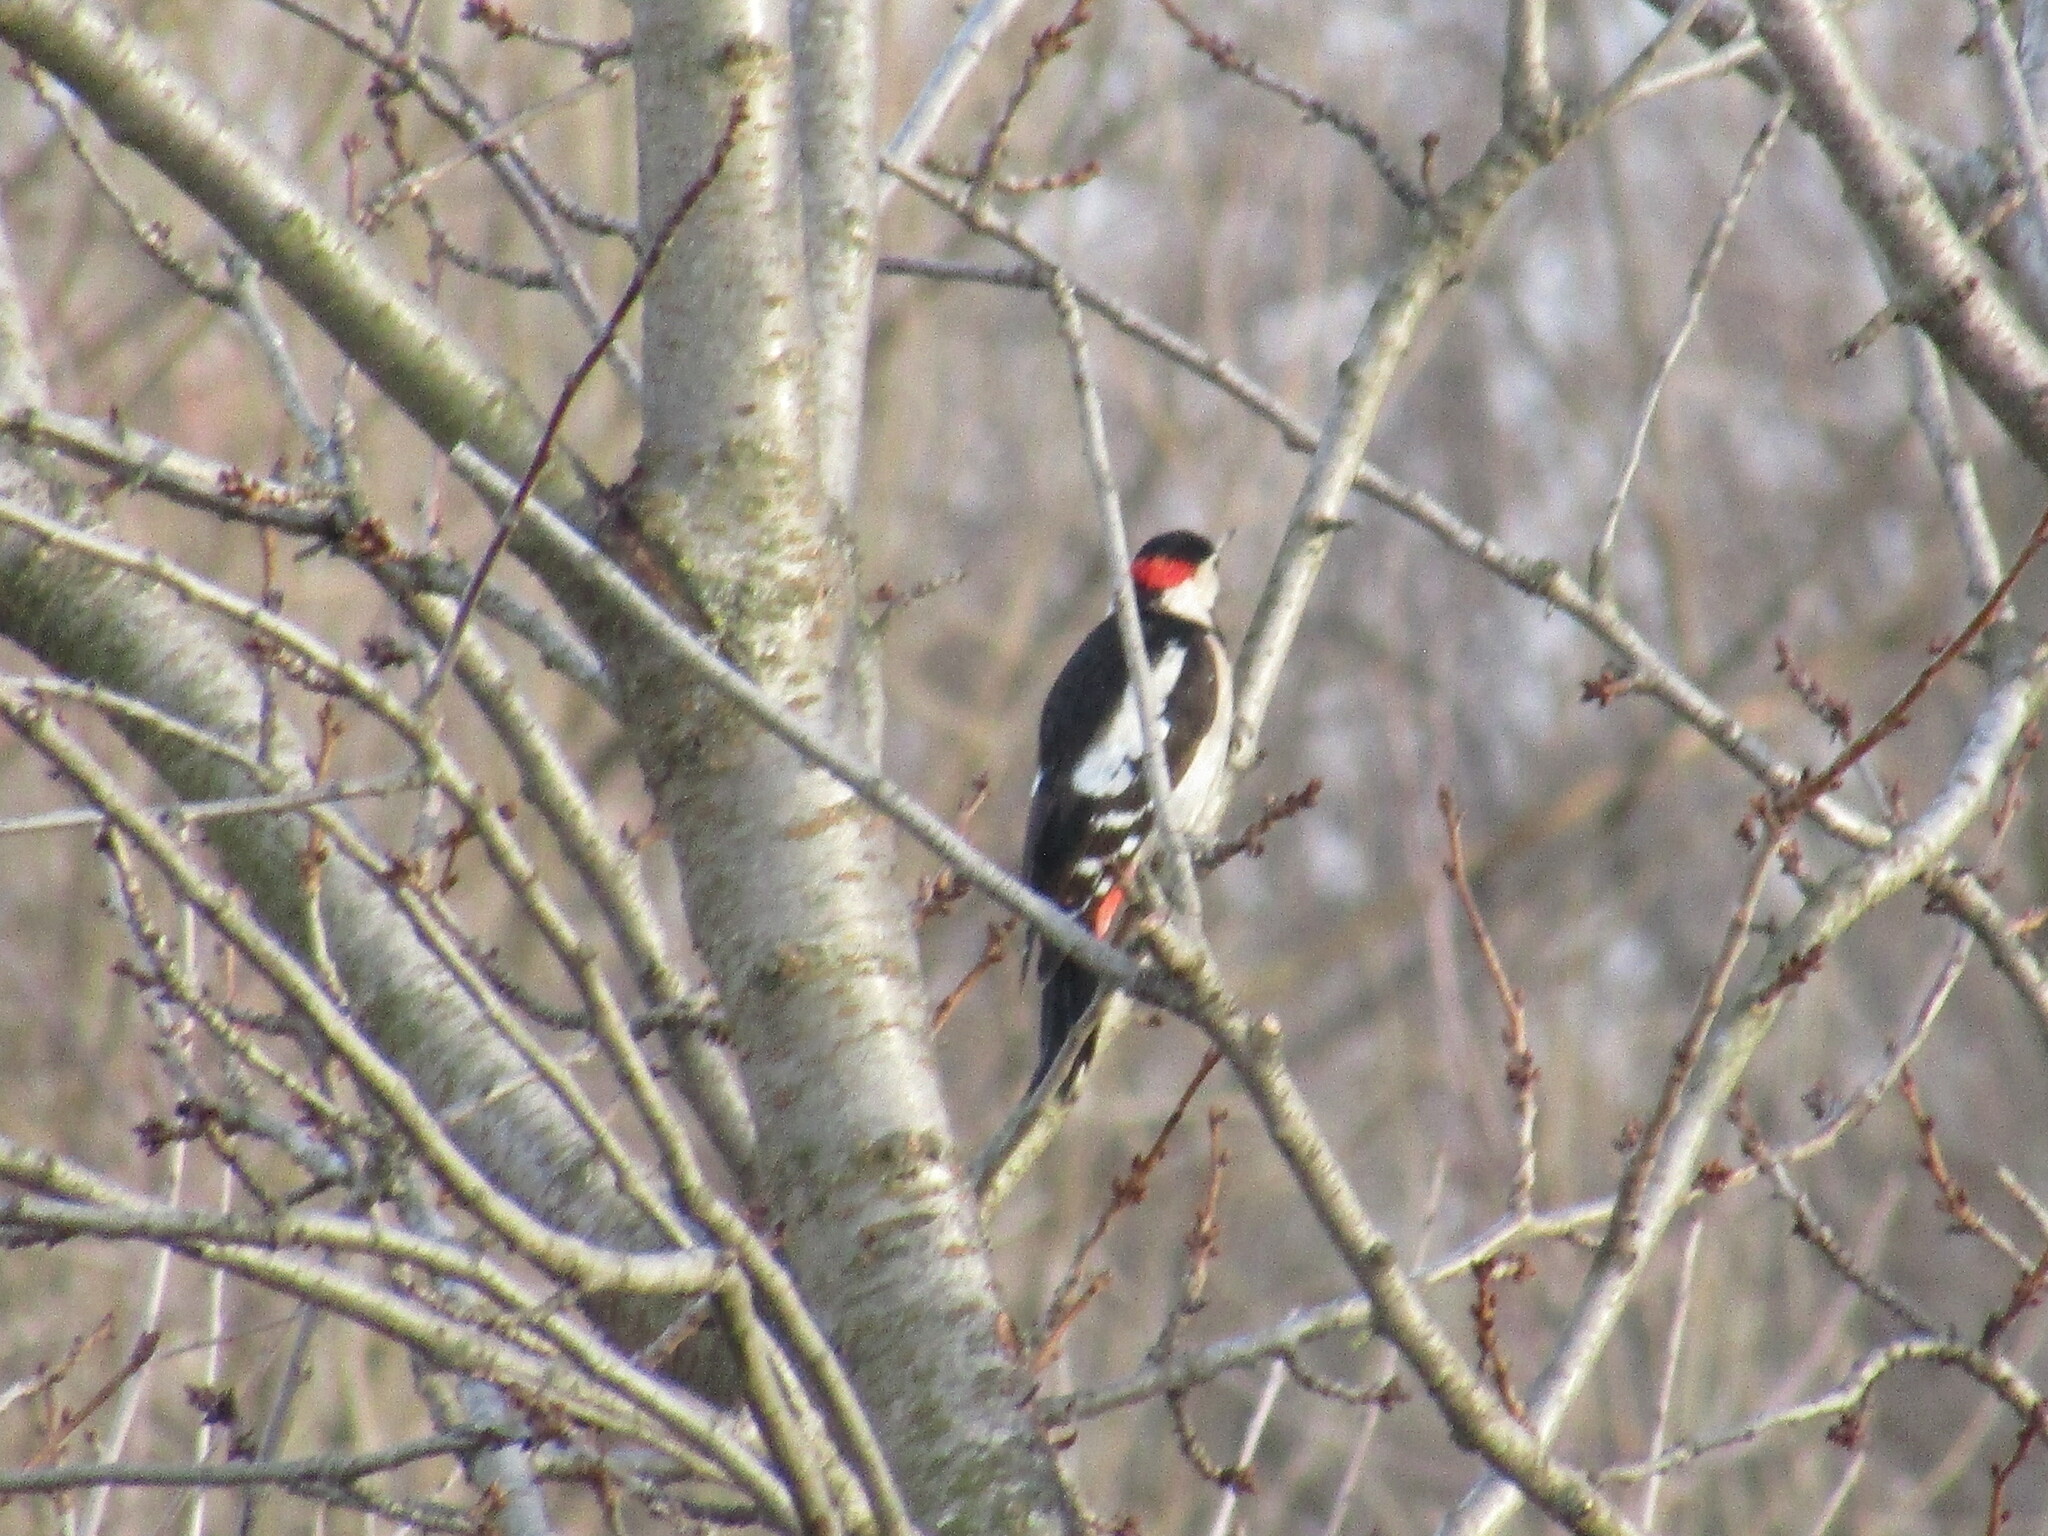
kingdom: Animalia
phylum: Chordata
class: Aves
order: Piciformes
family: Picidae
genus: Dendrocopos
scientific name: Dendrocopos syriacus
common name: Syrian woodpecker
